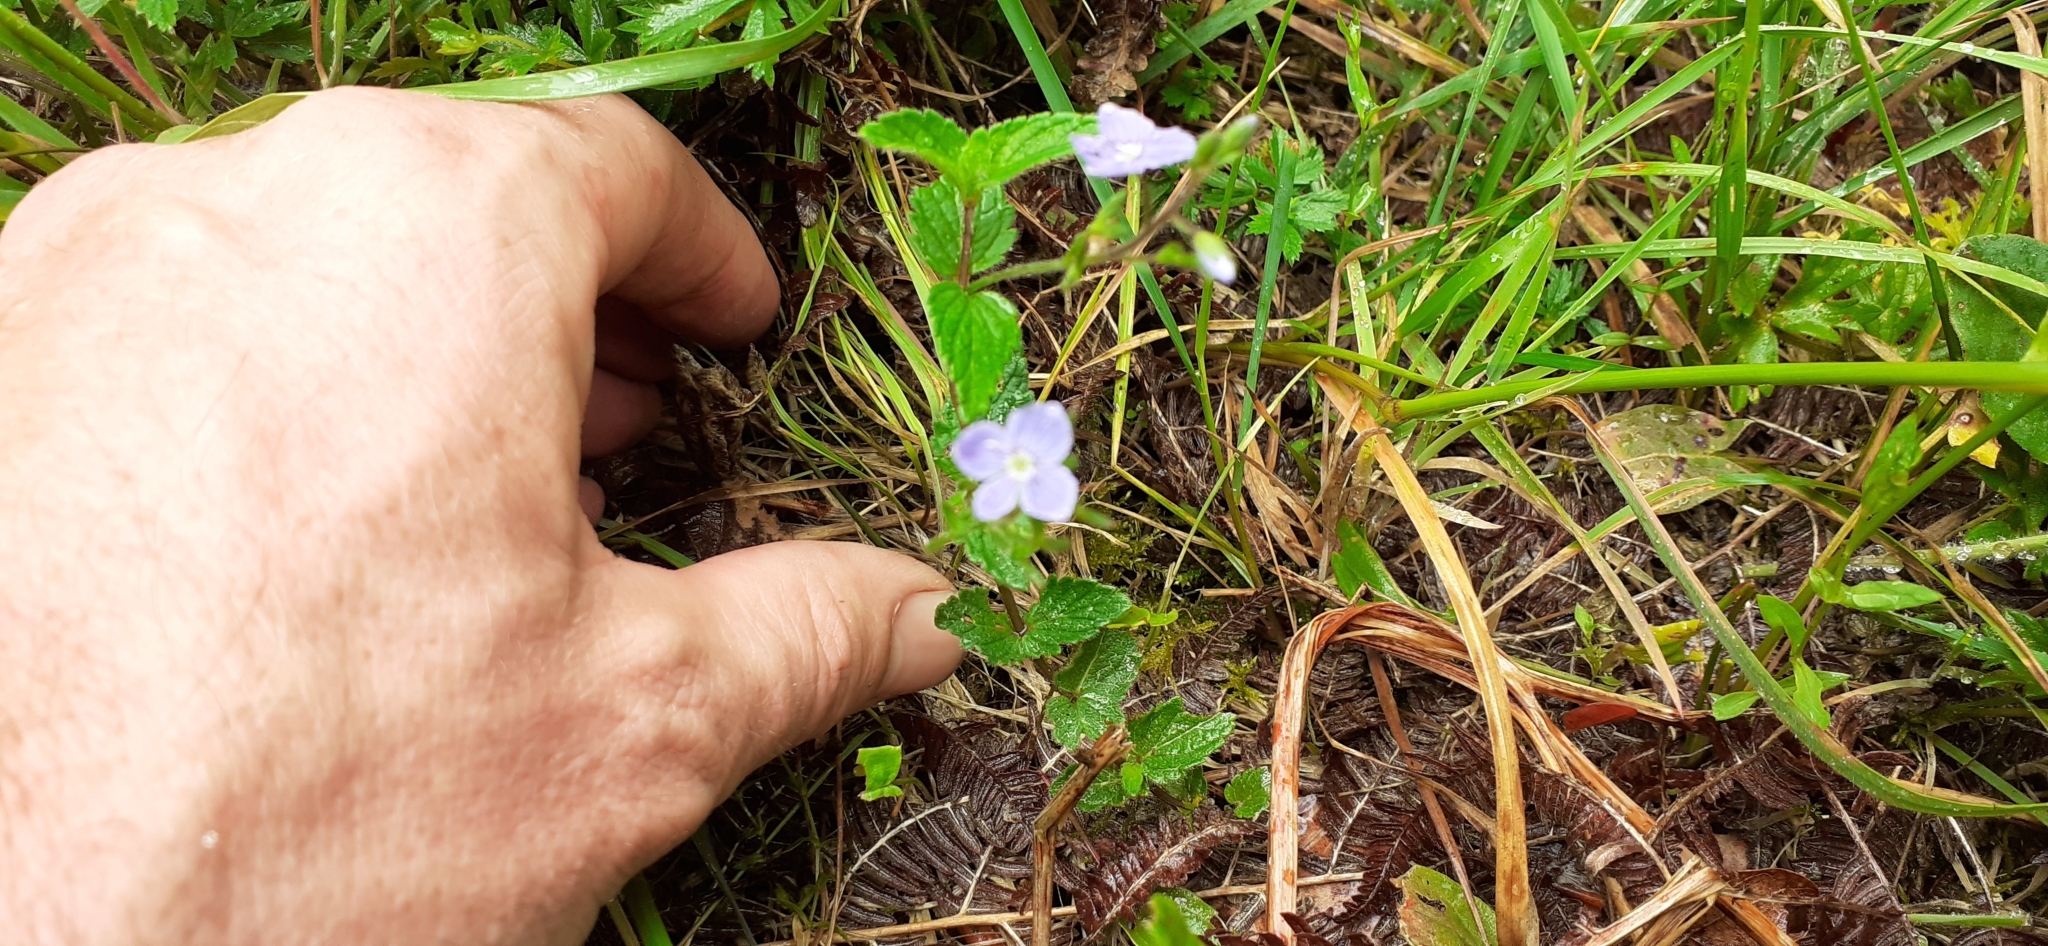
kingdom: Plantae
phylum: Tracheophyta
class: Magnoliopsida
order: Lamiales
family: Plantaginaceae
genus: Veronica
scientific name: Veronica chamaedrys
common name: Germander speedwell
